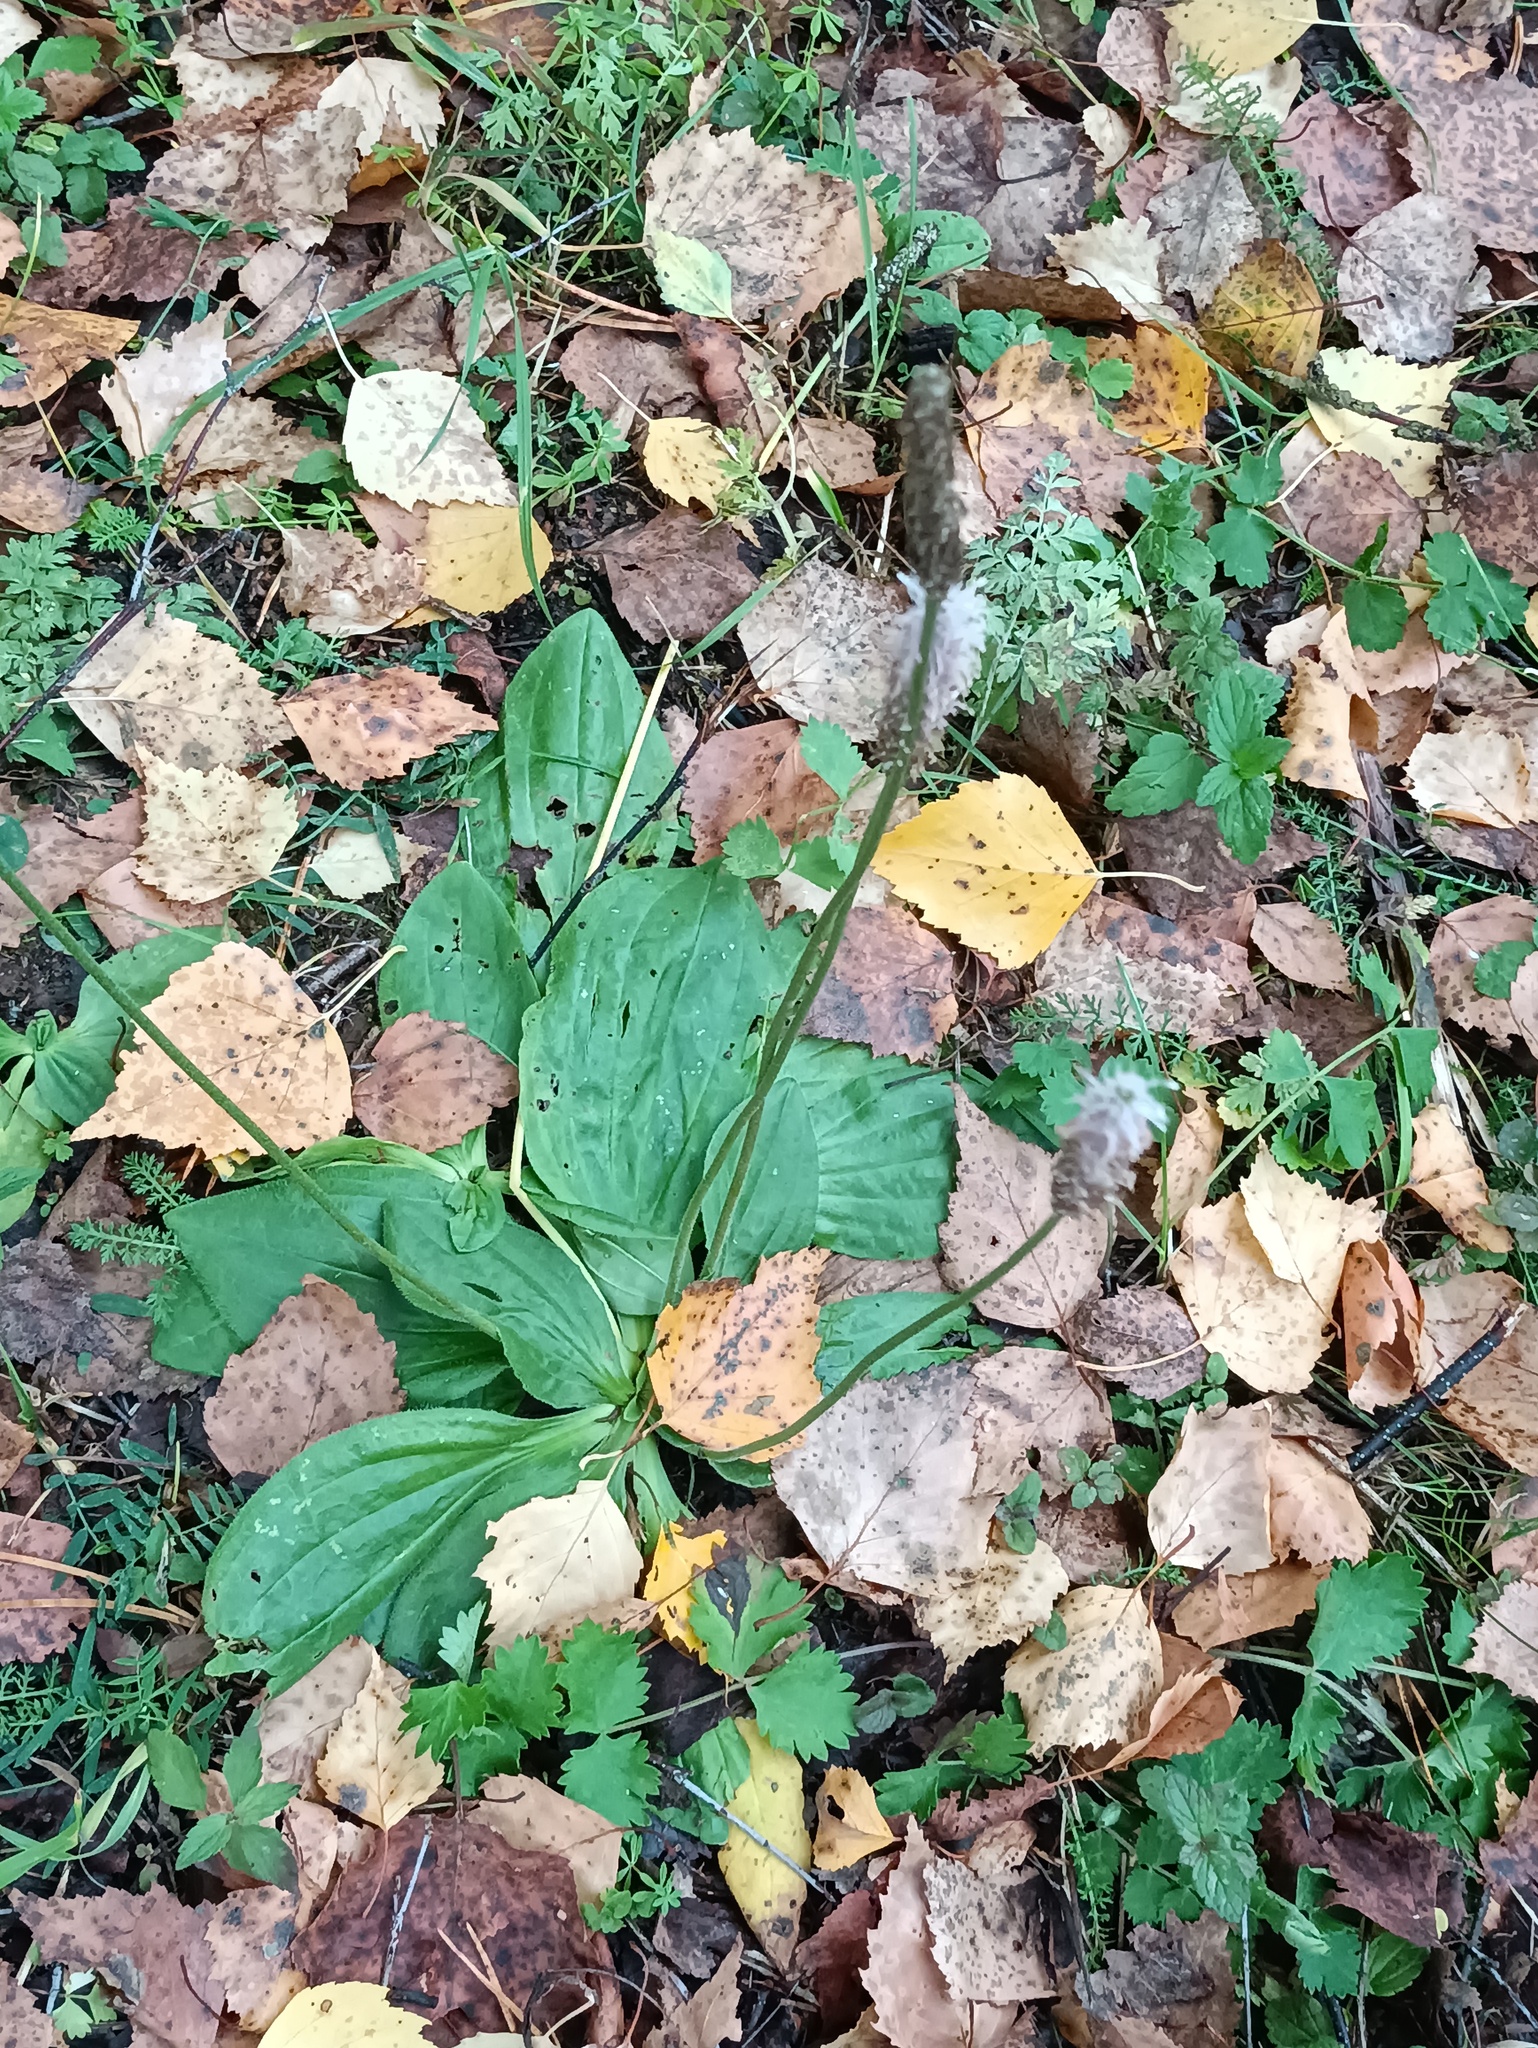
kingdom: Plantae
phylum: Tracheophyta
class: Magnoliopsida
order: Lamiales
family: Plantaginaceae
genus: Plantago
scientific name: Plantago media
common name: Hoary plantain
